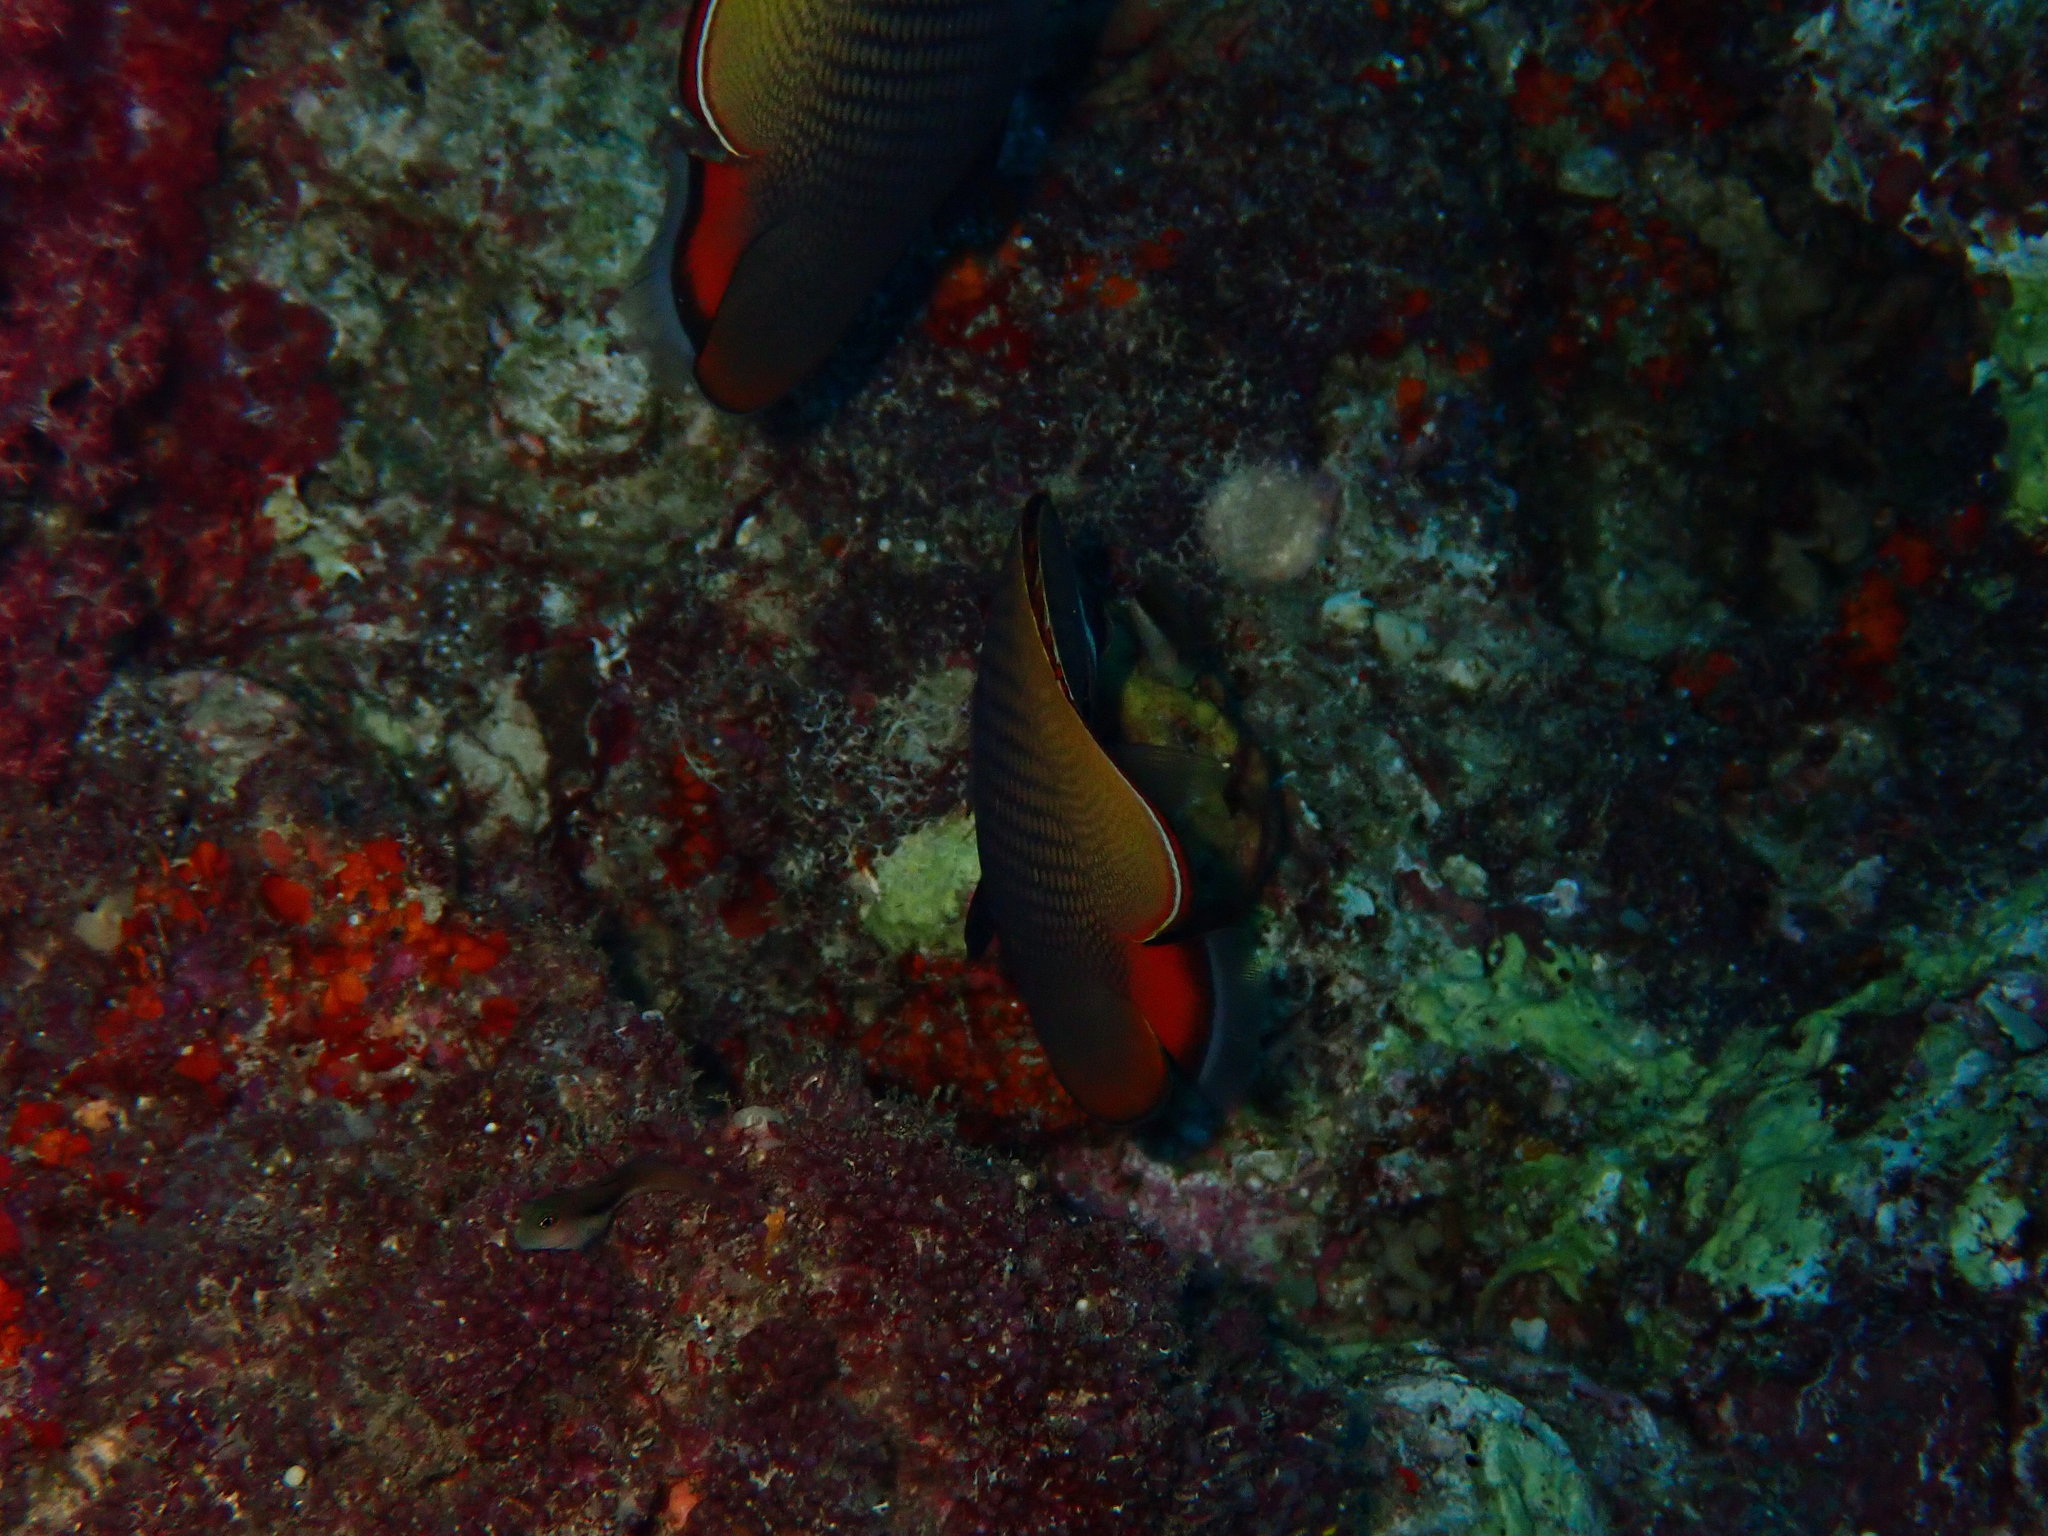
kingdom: Animalia
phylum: Chordata
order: Perciformes
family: Chaetodontidae
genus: Chaetodon
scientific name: Chaetodon collare
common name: Redtail butterflyfish
